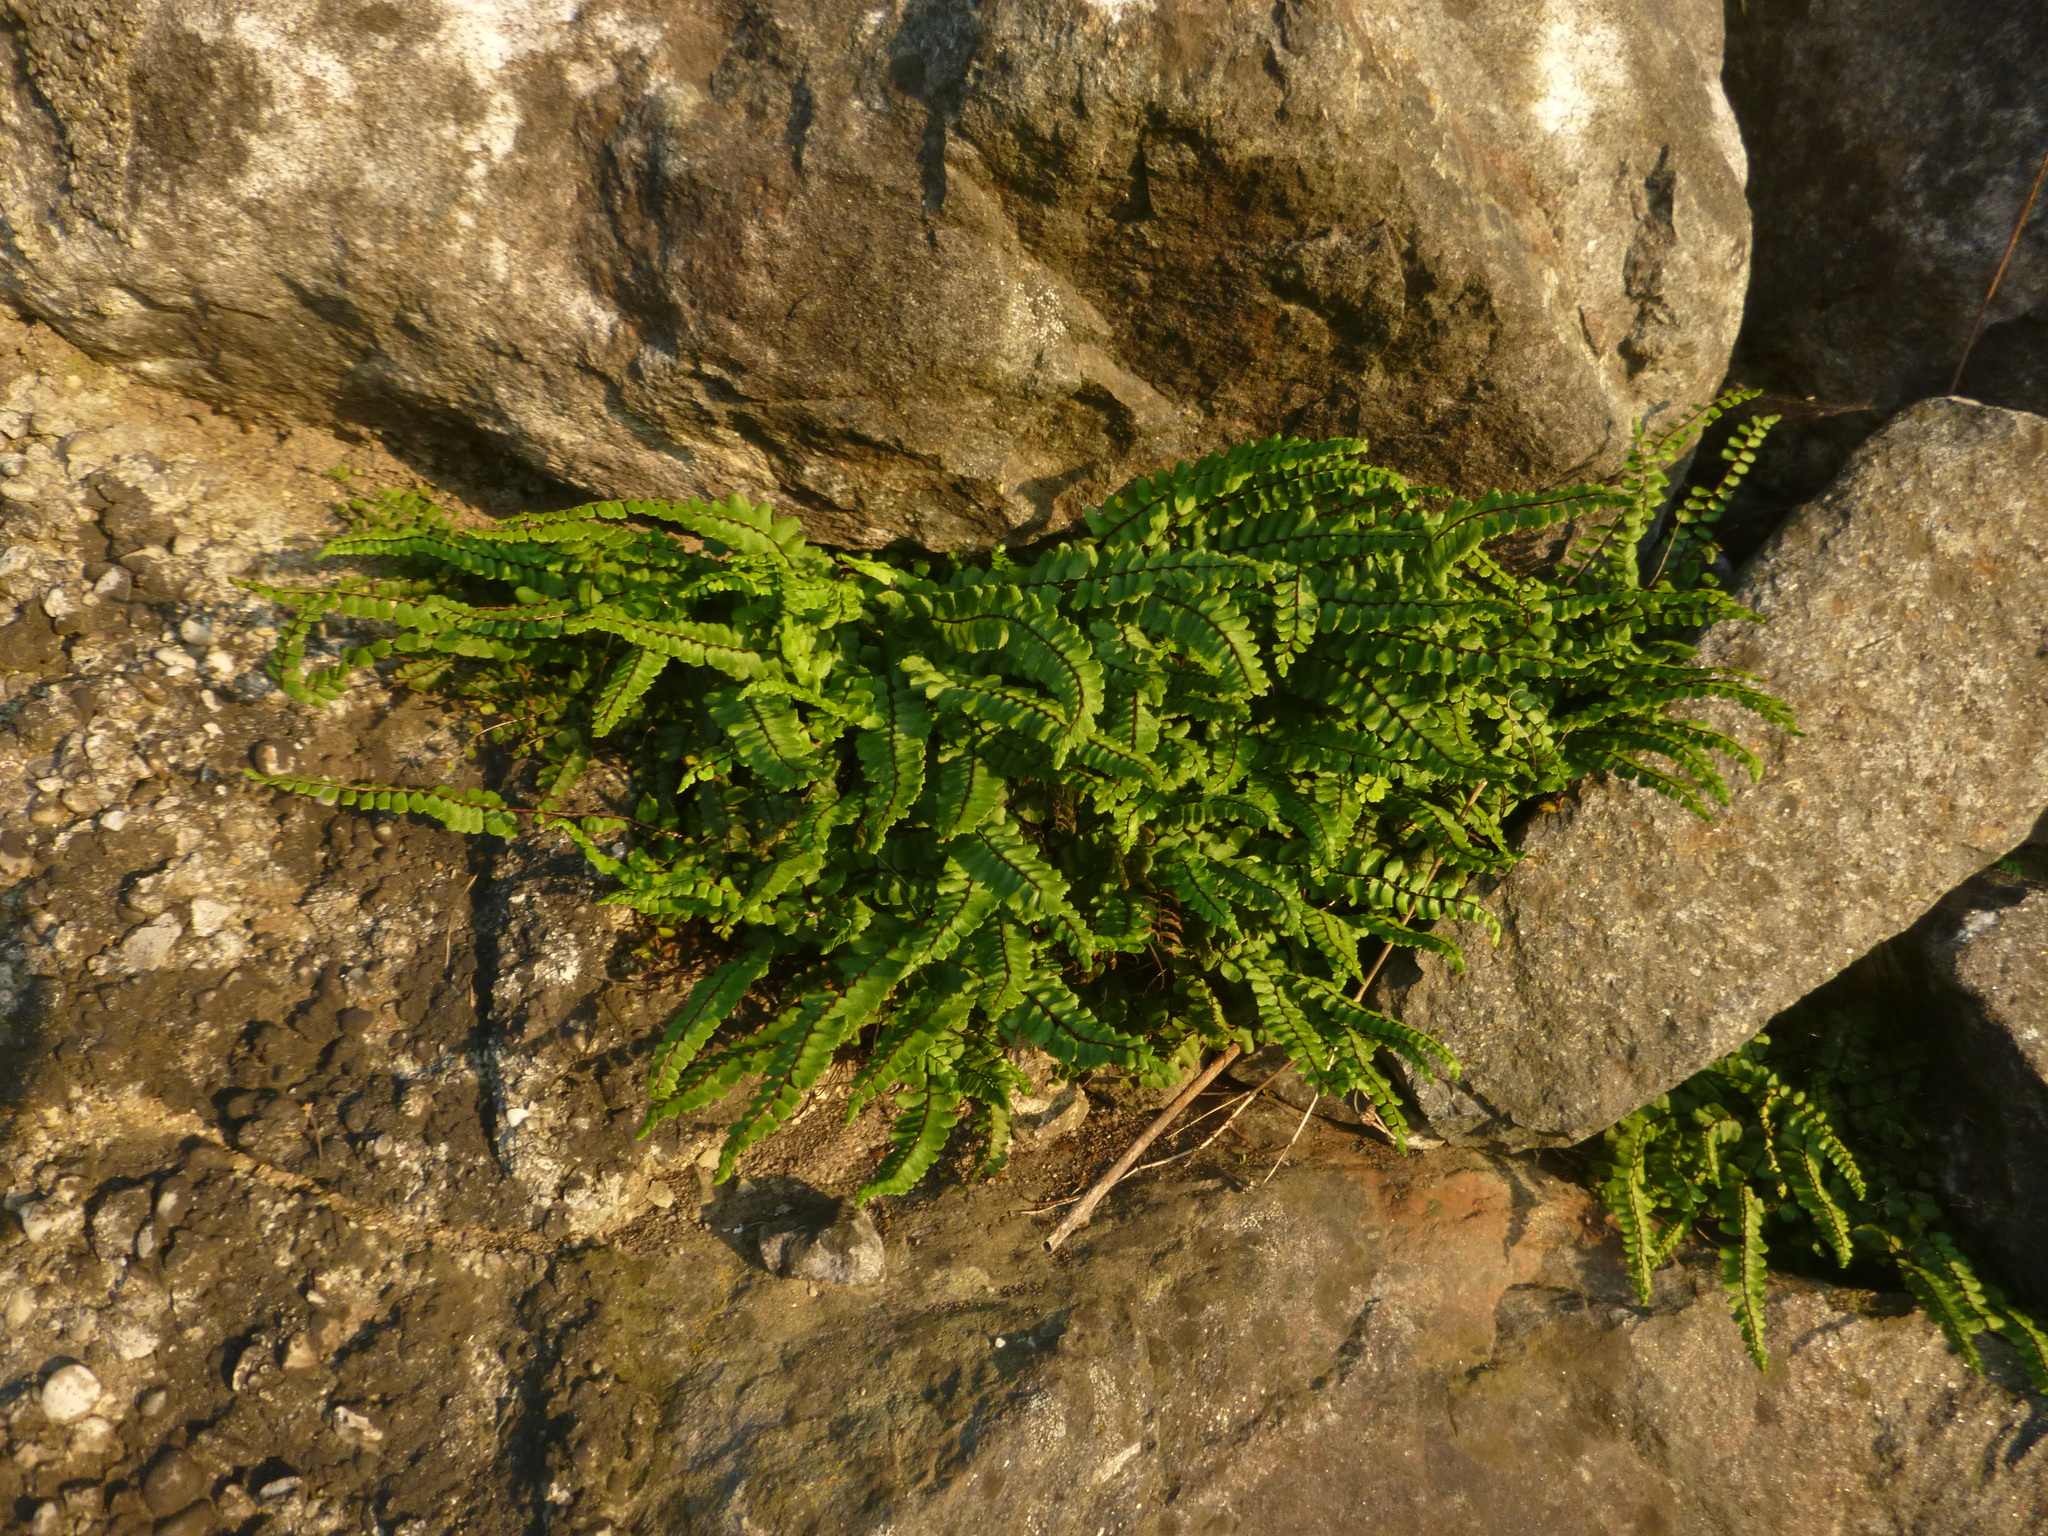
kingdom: Plantae
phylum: Tracheophyta
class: Polypodiopsida
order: Polypodiales
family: Aspleniaceae
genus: Asplenium
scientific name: Asplenium trichomanes
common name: Maidenhair spleenwort
